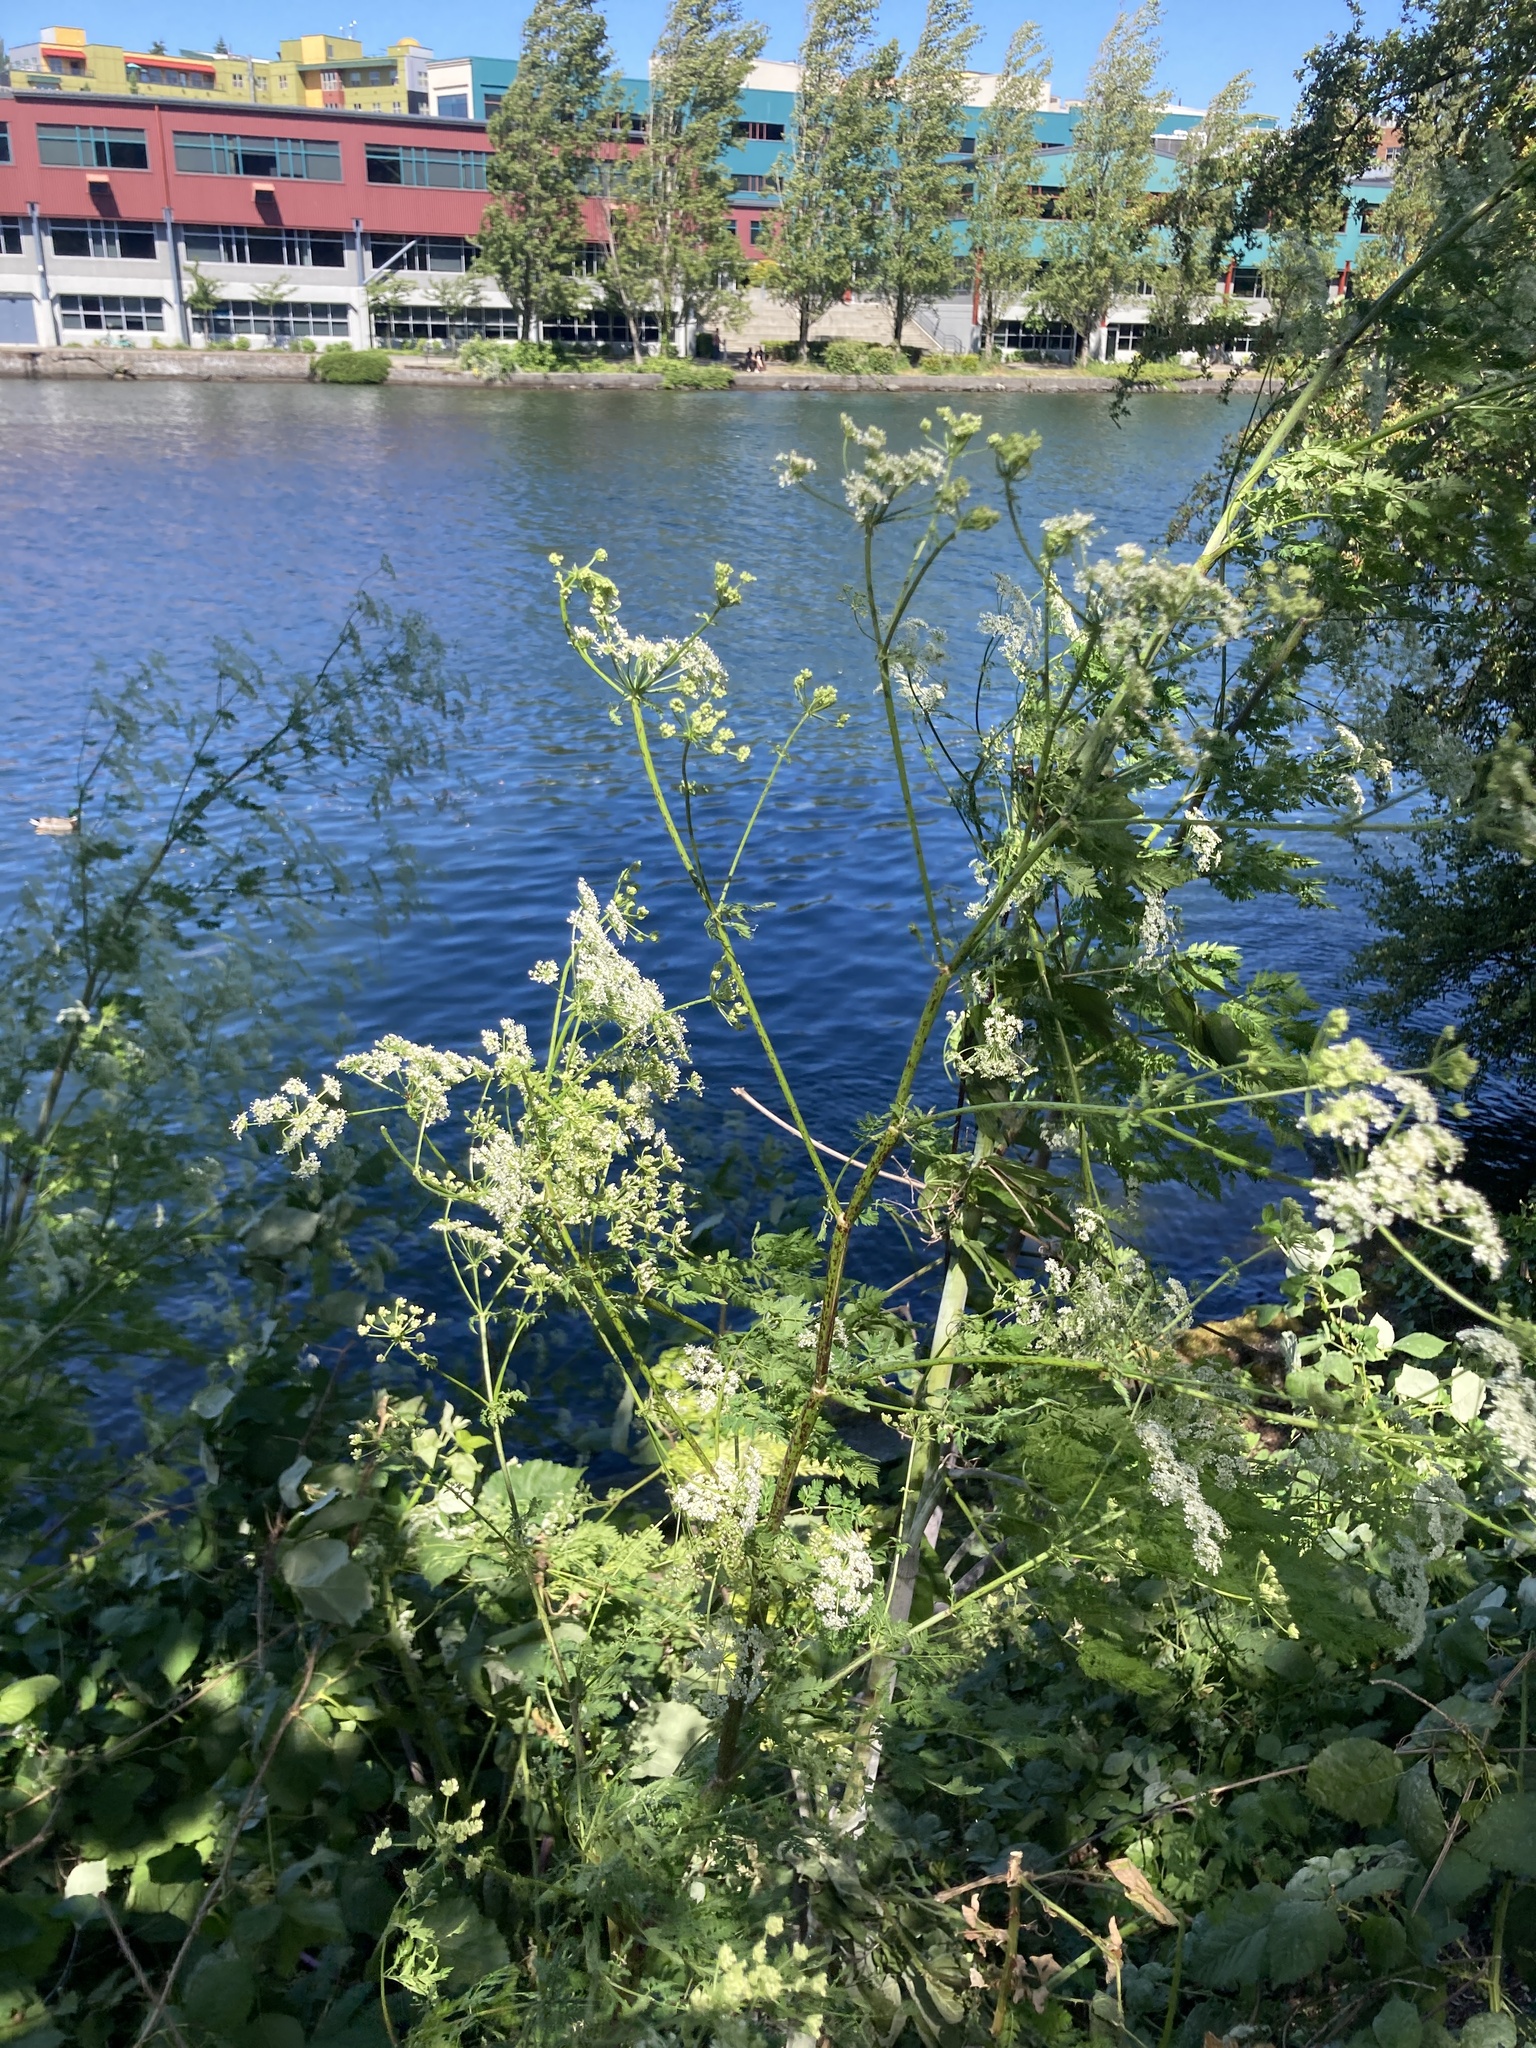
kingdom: Plantae
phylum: Tracheophyta
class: Magnoliopsida
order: Apiales
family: Apiaceae
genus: Conium
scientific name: Conium maculatum
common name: Hemlock
